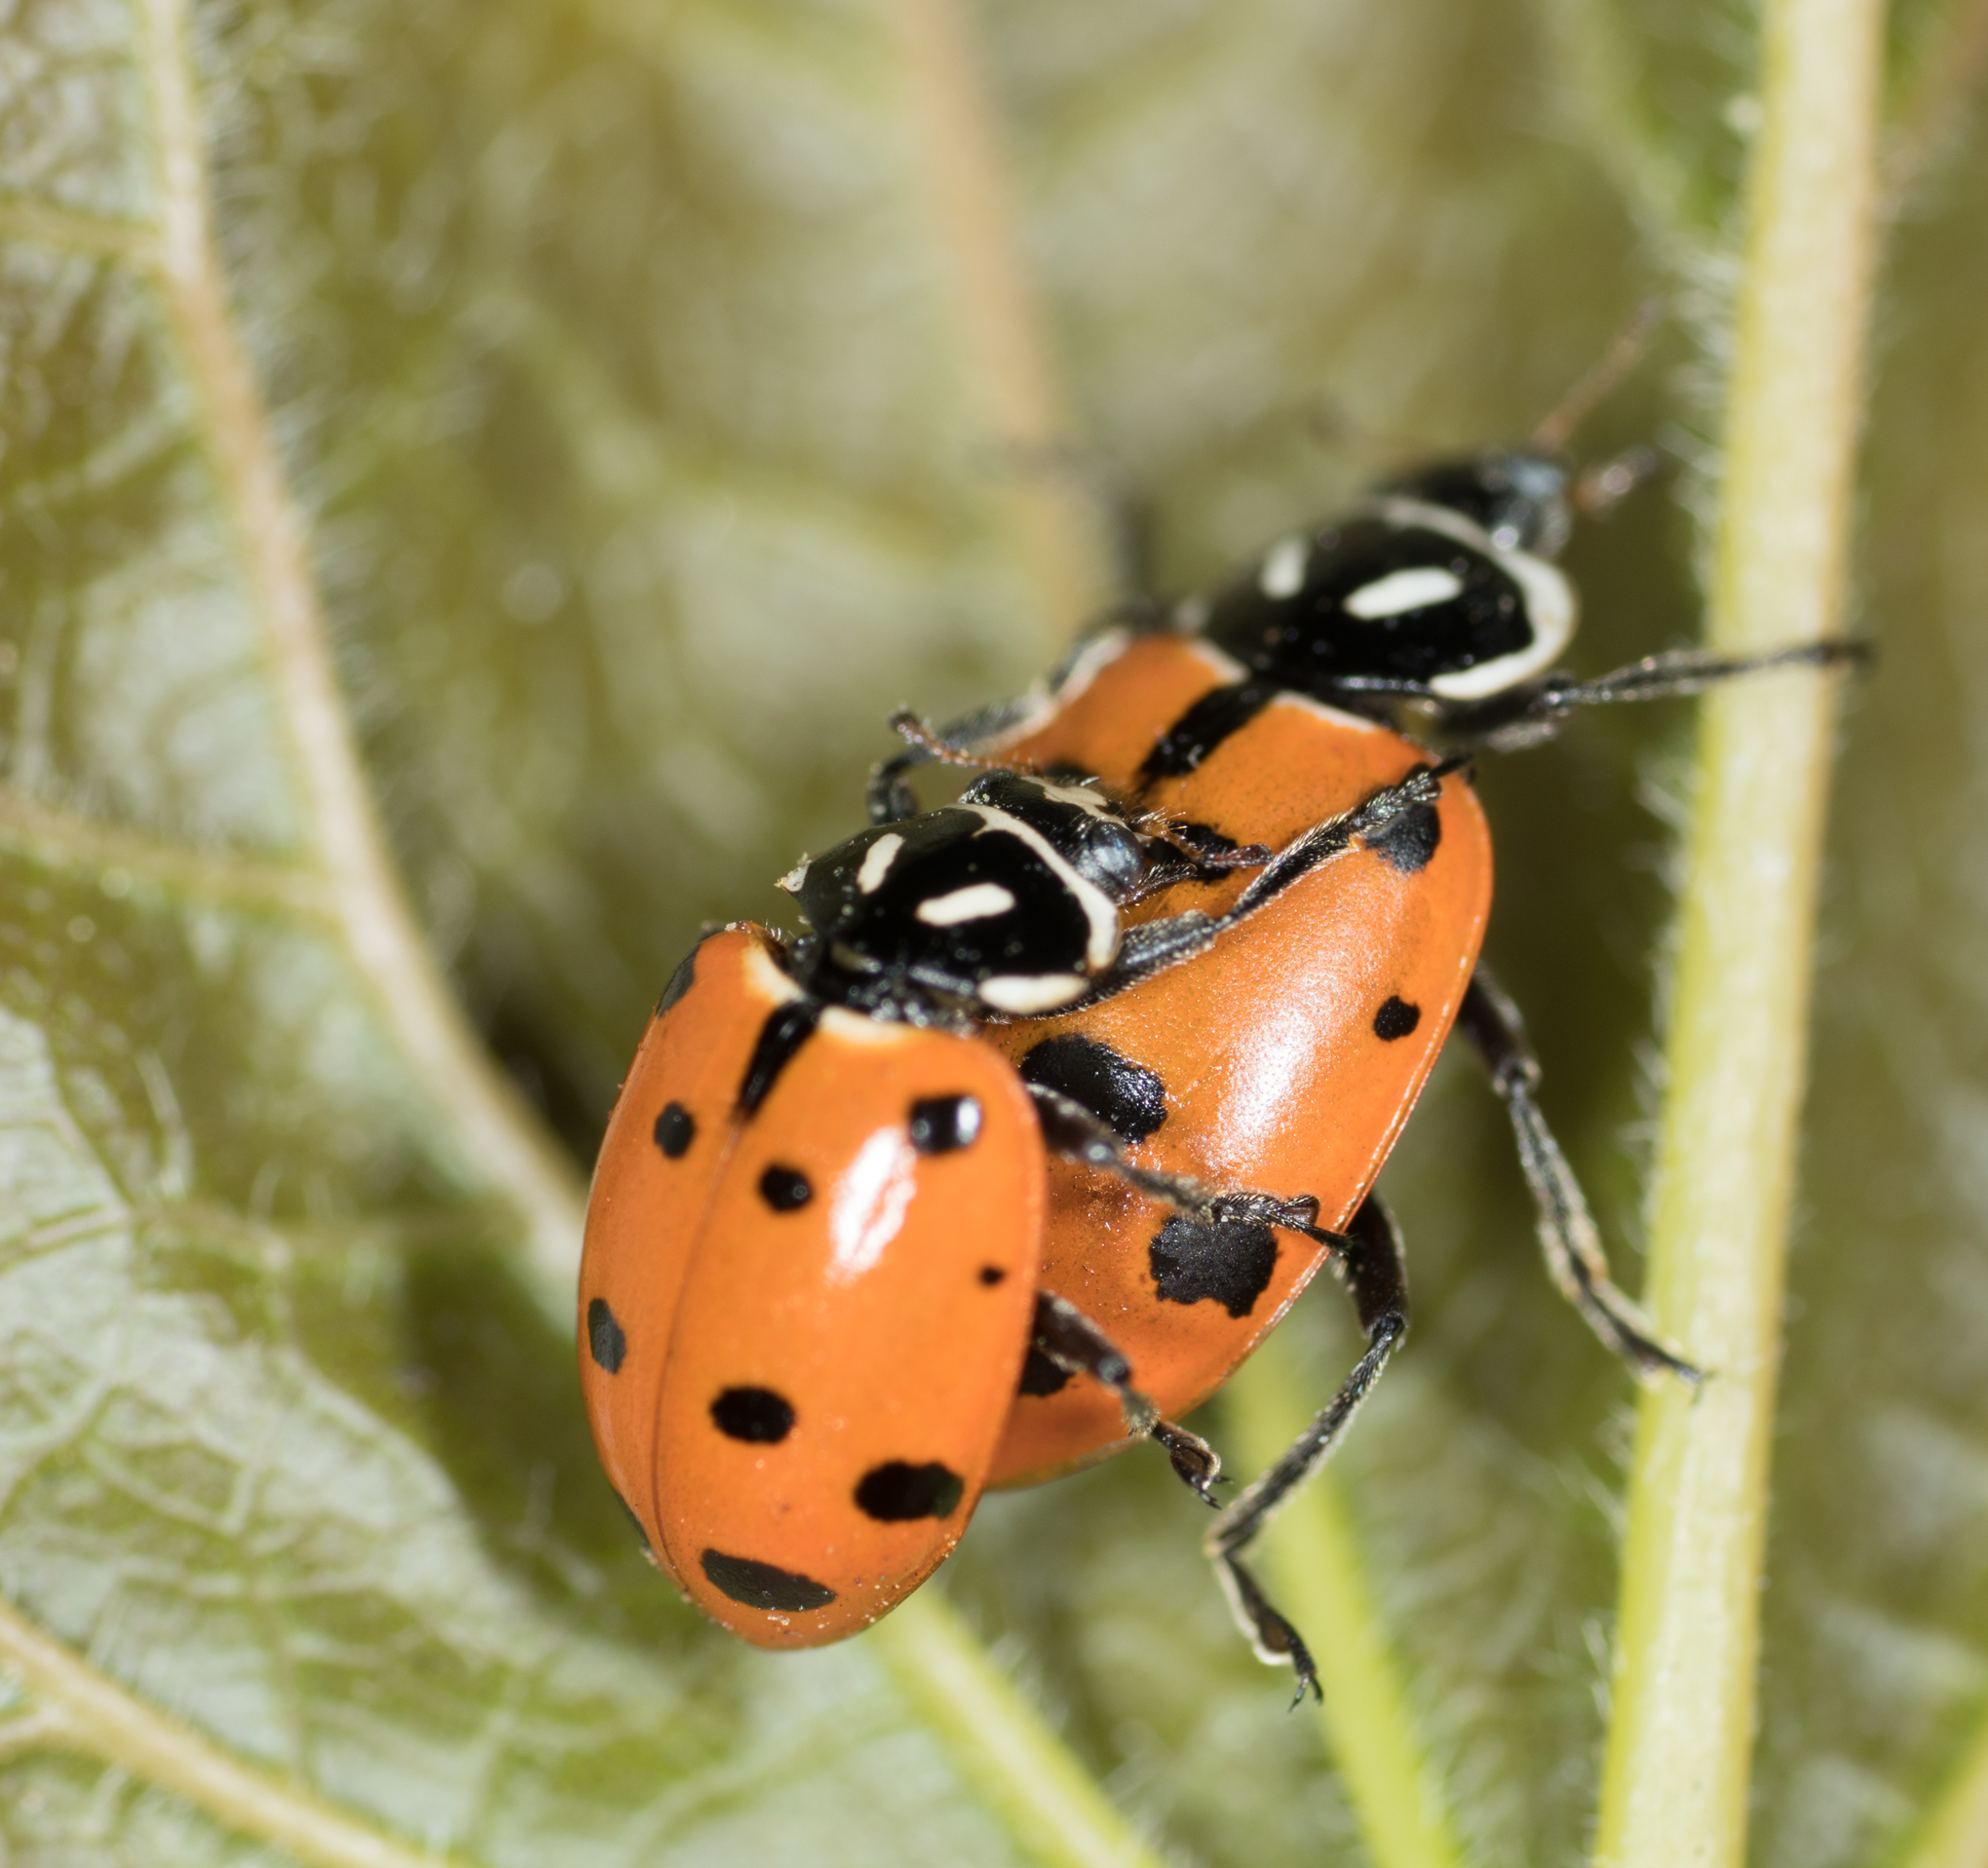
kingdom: Animalia
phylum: Arthropoda
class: Insecta
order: Coleoptera
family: Coccinellidae
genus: Hippodamia
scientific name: Hippodamia convergens
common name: Convergent lady beetle
